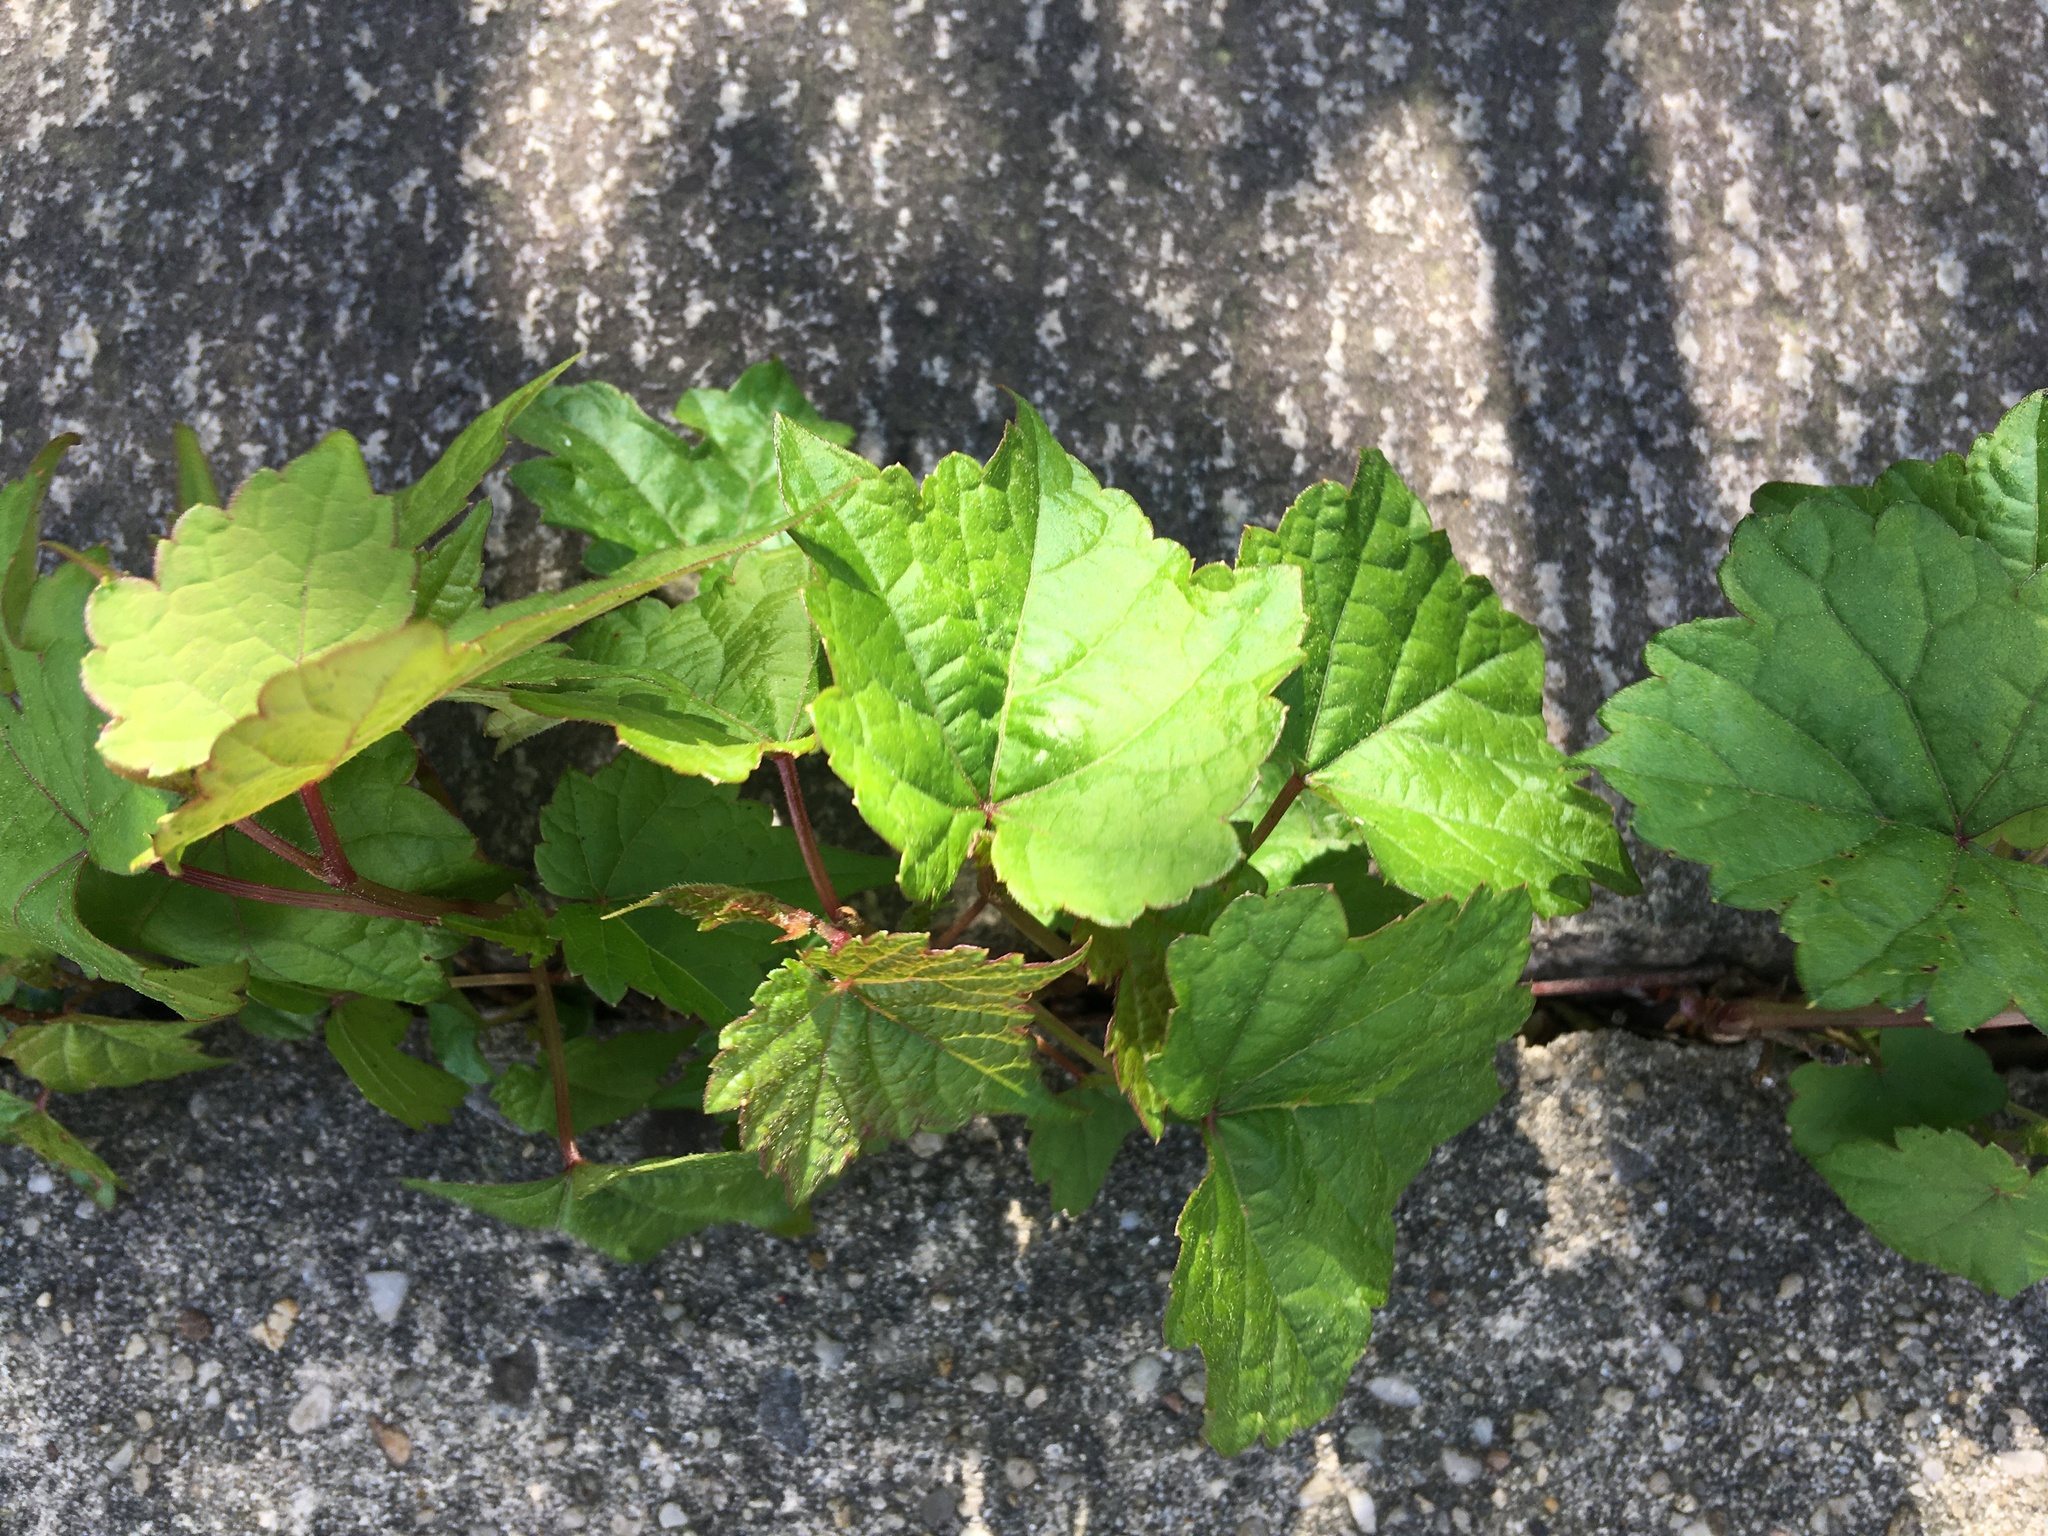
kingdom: Plantae
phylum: Tracheophyta
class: Magnoliopsida
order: Vitales
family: Vitaceae
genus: Ampelopsis
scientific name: Ampelopsis glandulosa
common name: Amur peppervine
